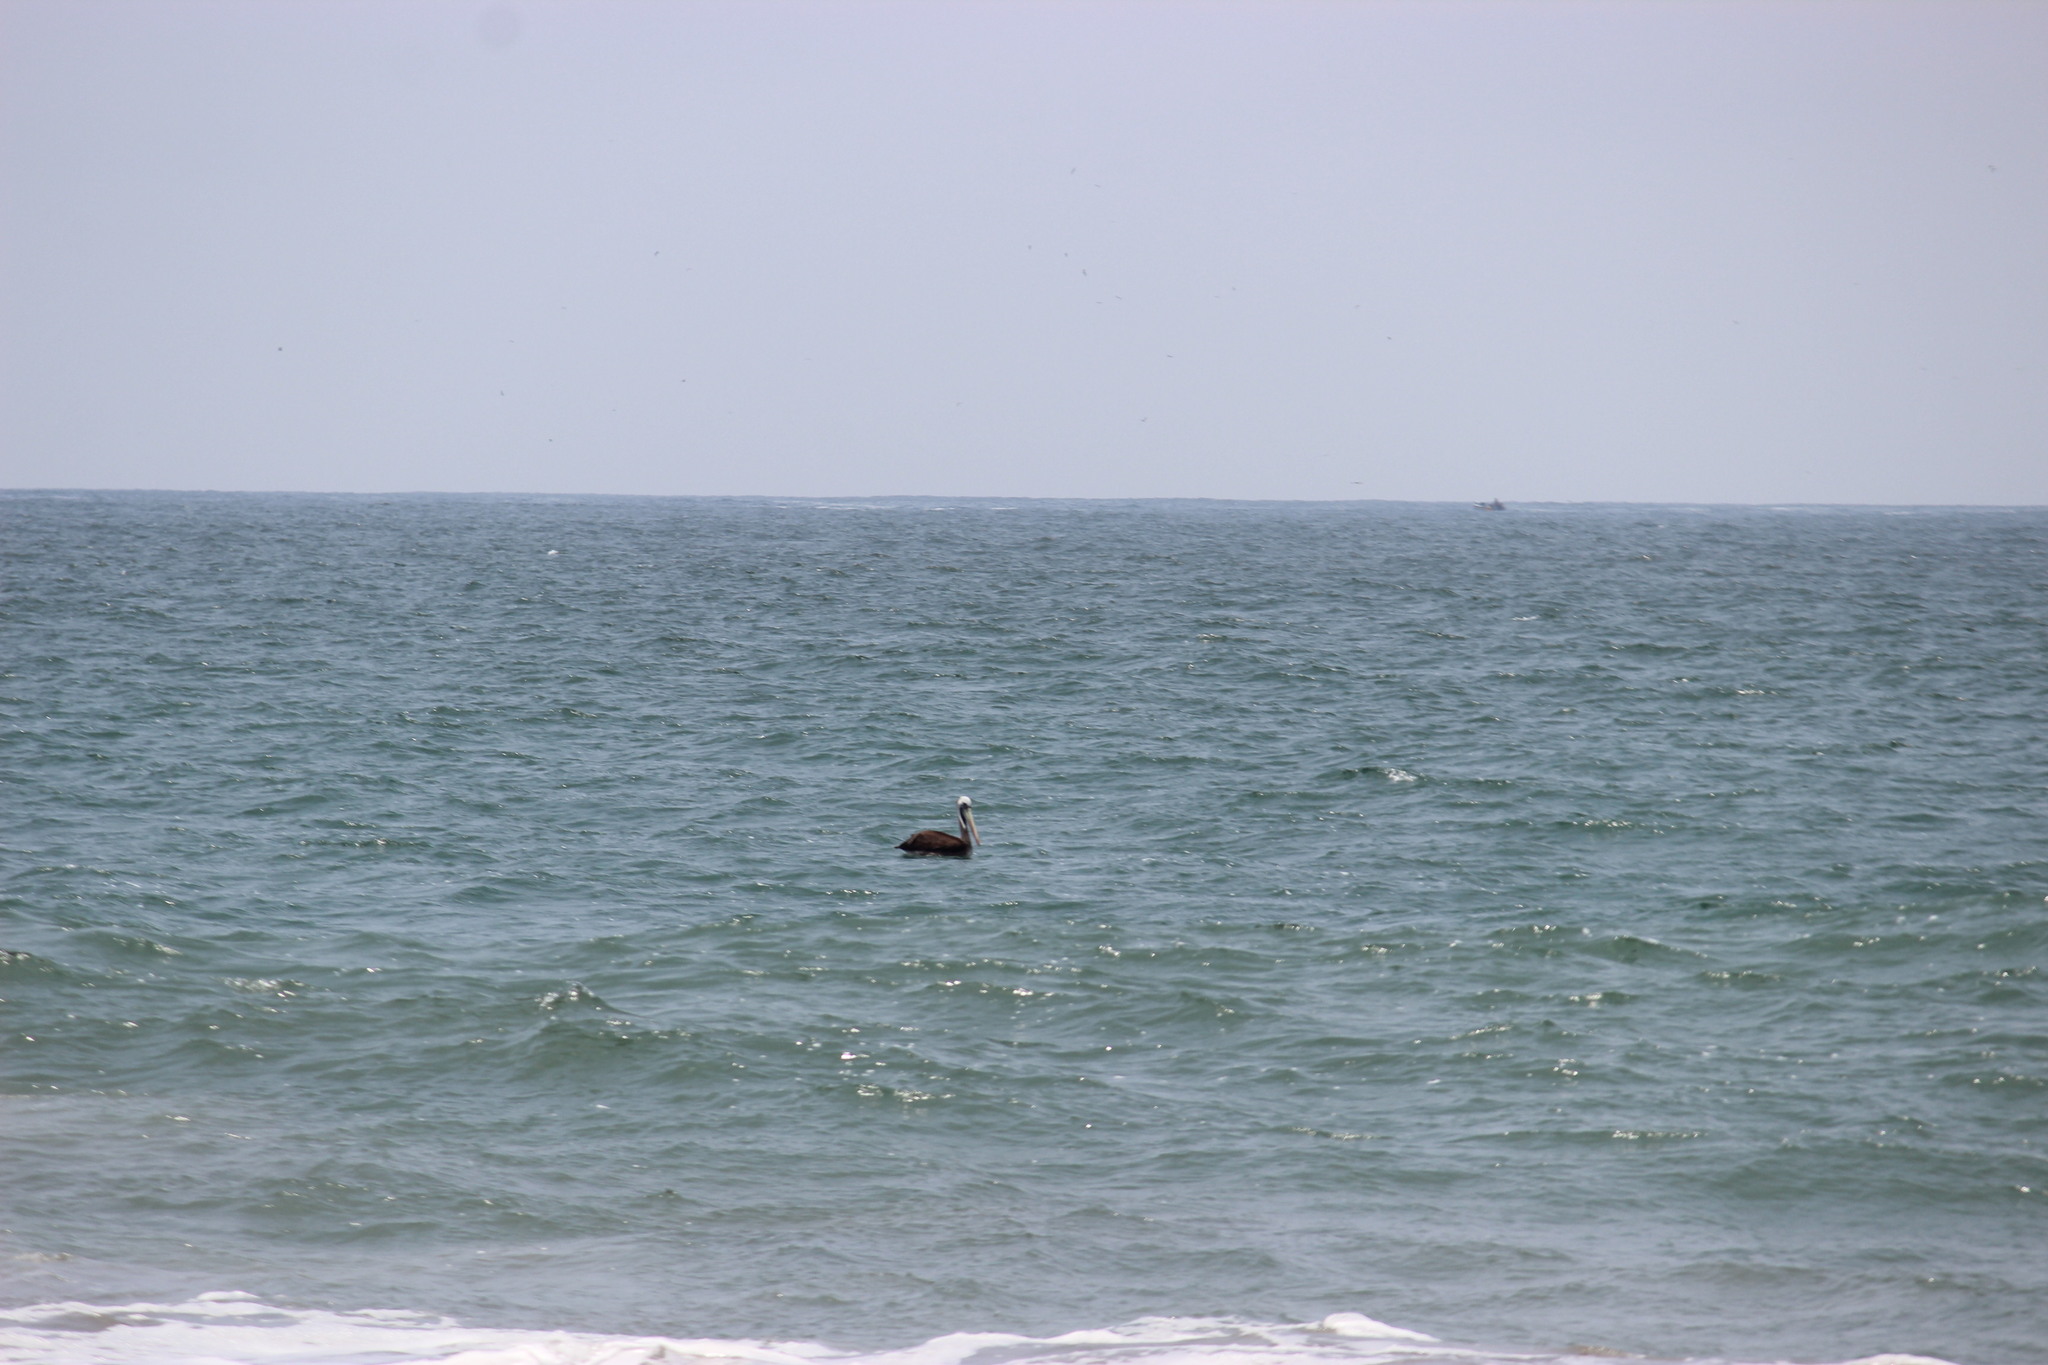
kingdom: Animalia
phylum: Chordata
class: Aves
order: Pelecaniformes
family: Pelecanidae
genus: Pelecanus
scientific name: Pelecanus thagus
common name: Peruvian pelican
